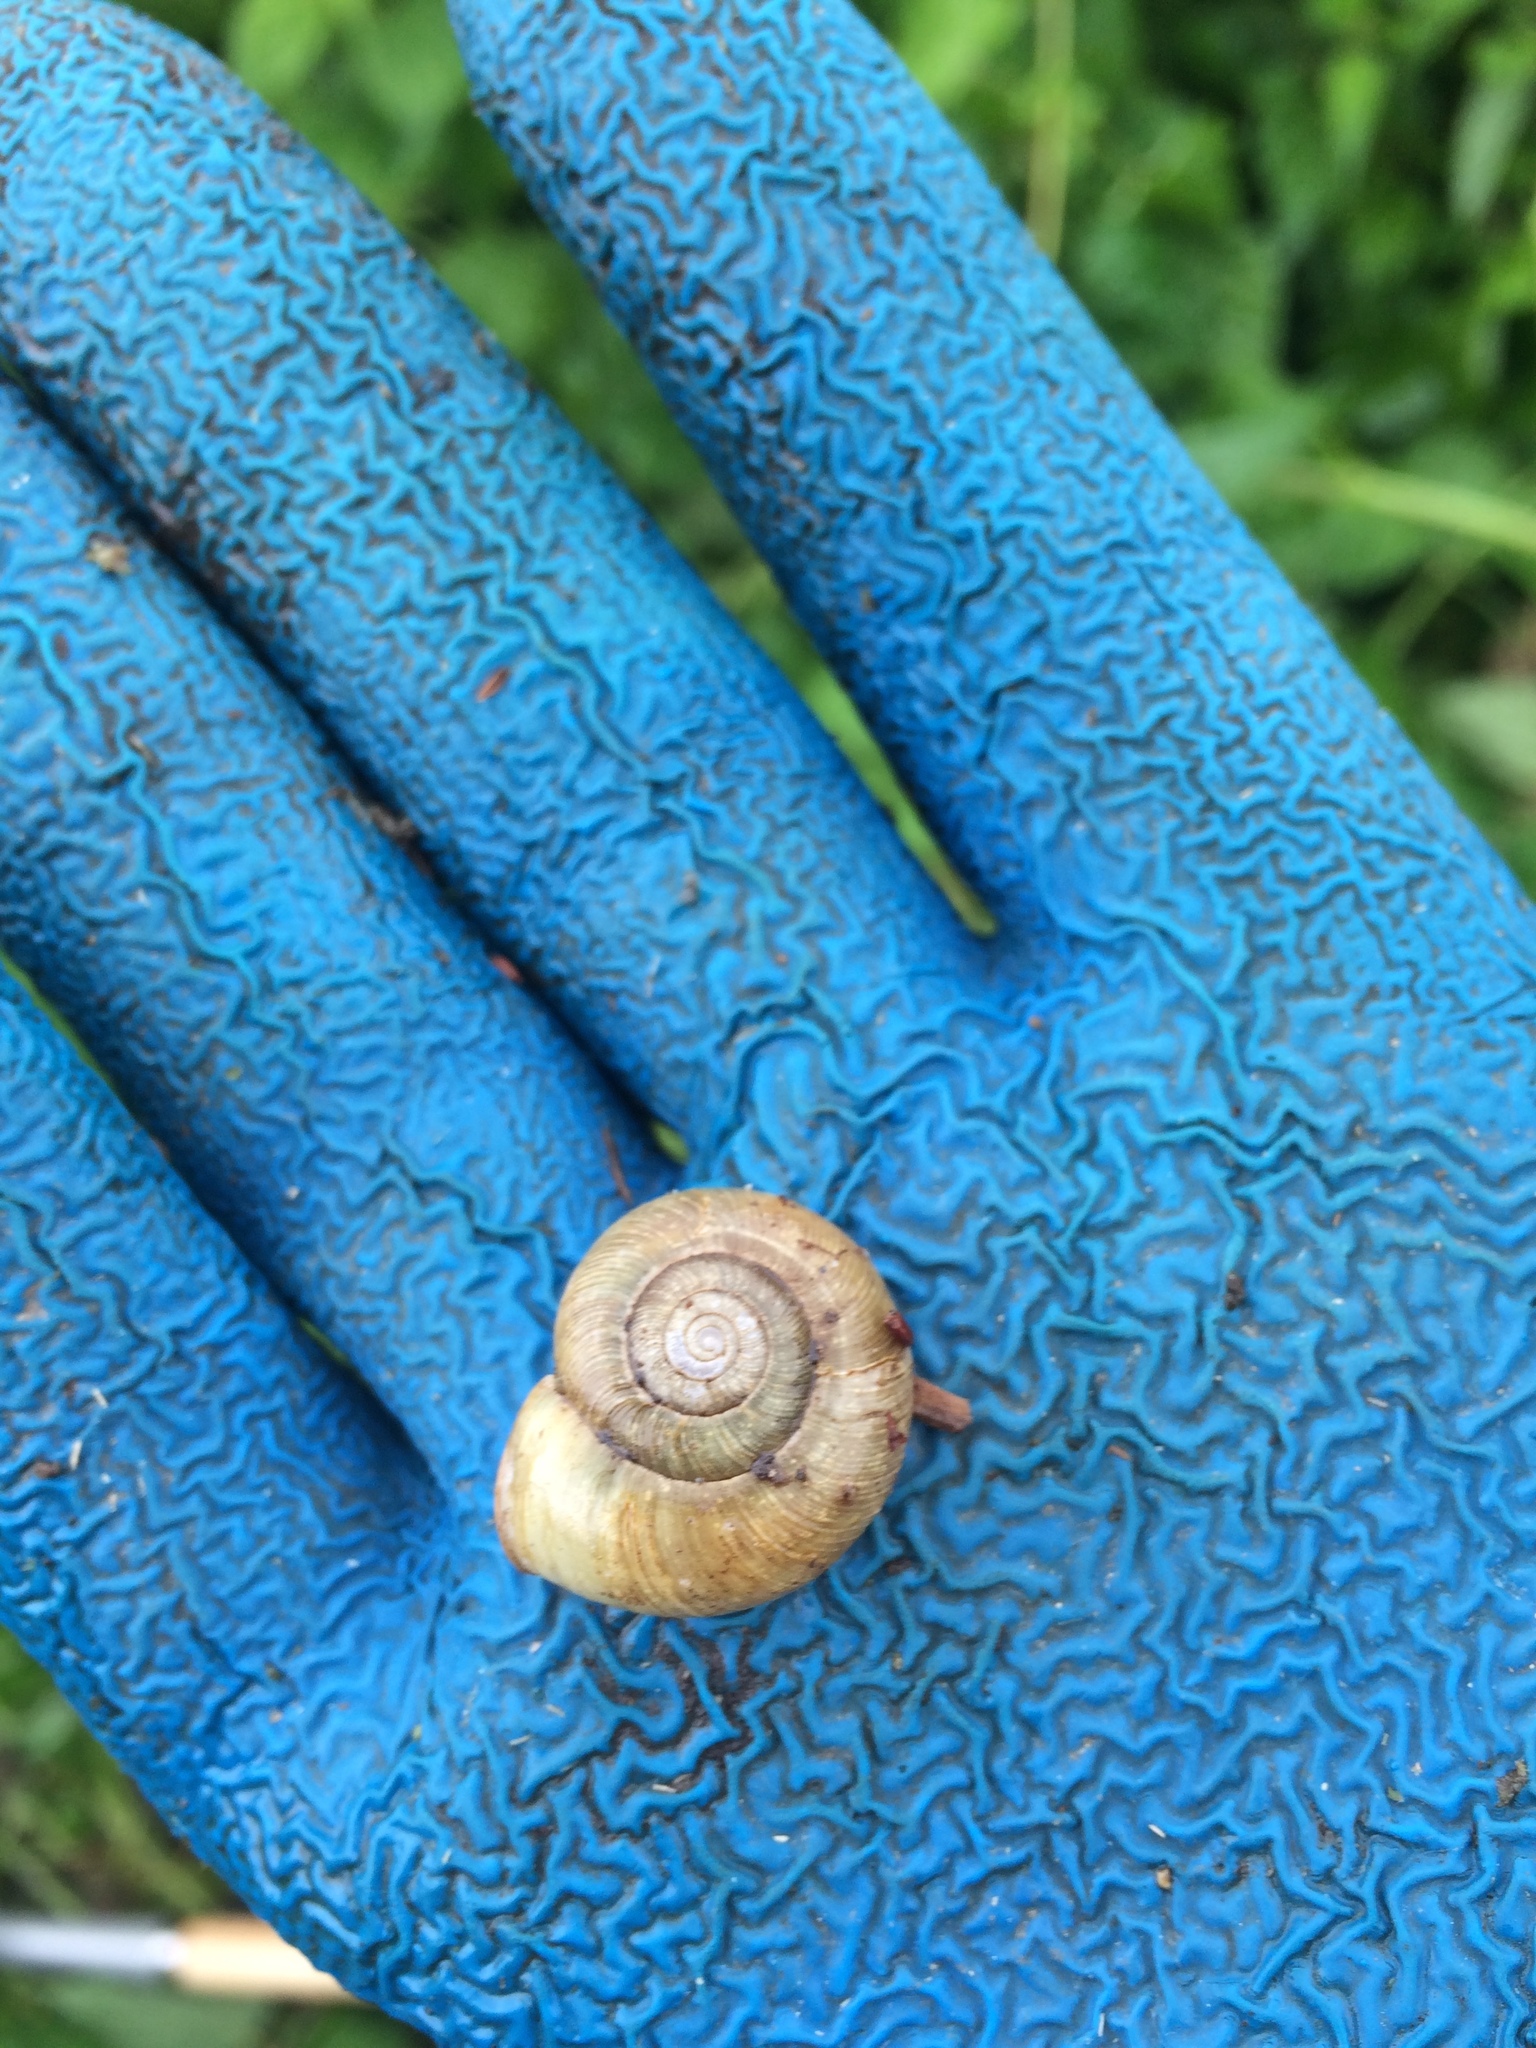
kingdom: Animalia
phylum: Mollusca
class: Gastropoda
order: Stylommatophora
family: Haplotrematidae
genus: Haplotrema
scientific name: Haplotrema vancouverense
